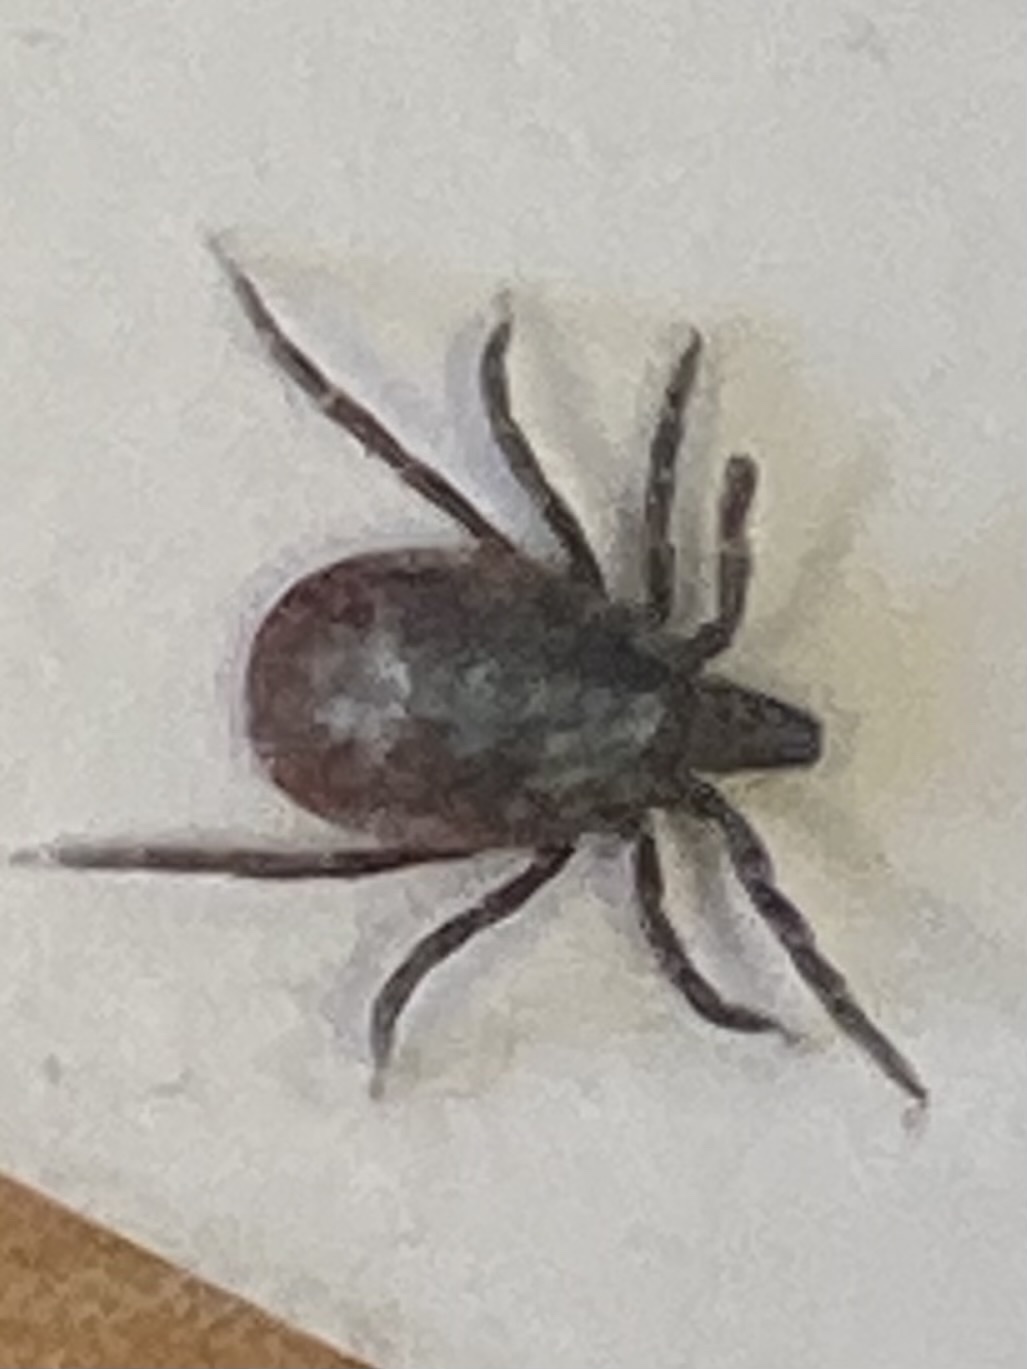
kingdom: Animalia
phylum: Arthropoda
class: Arachnida
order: Ixodida
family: Ixodidae
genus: Ixodes
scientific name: Ixodes ricinus
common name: Castor bean tick
